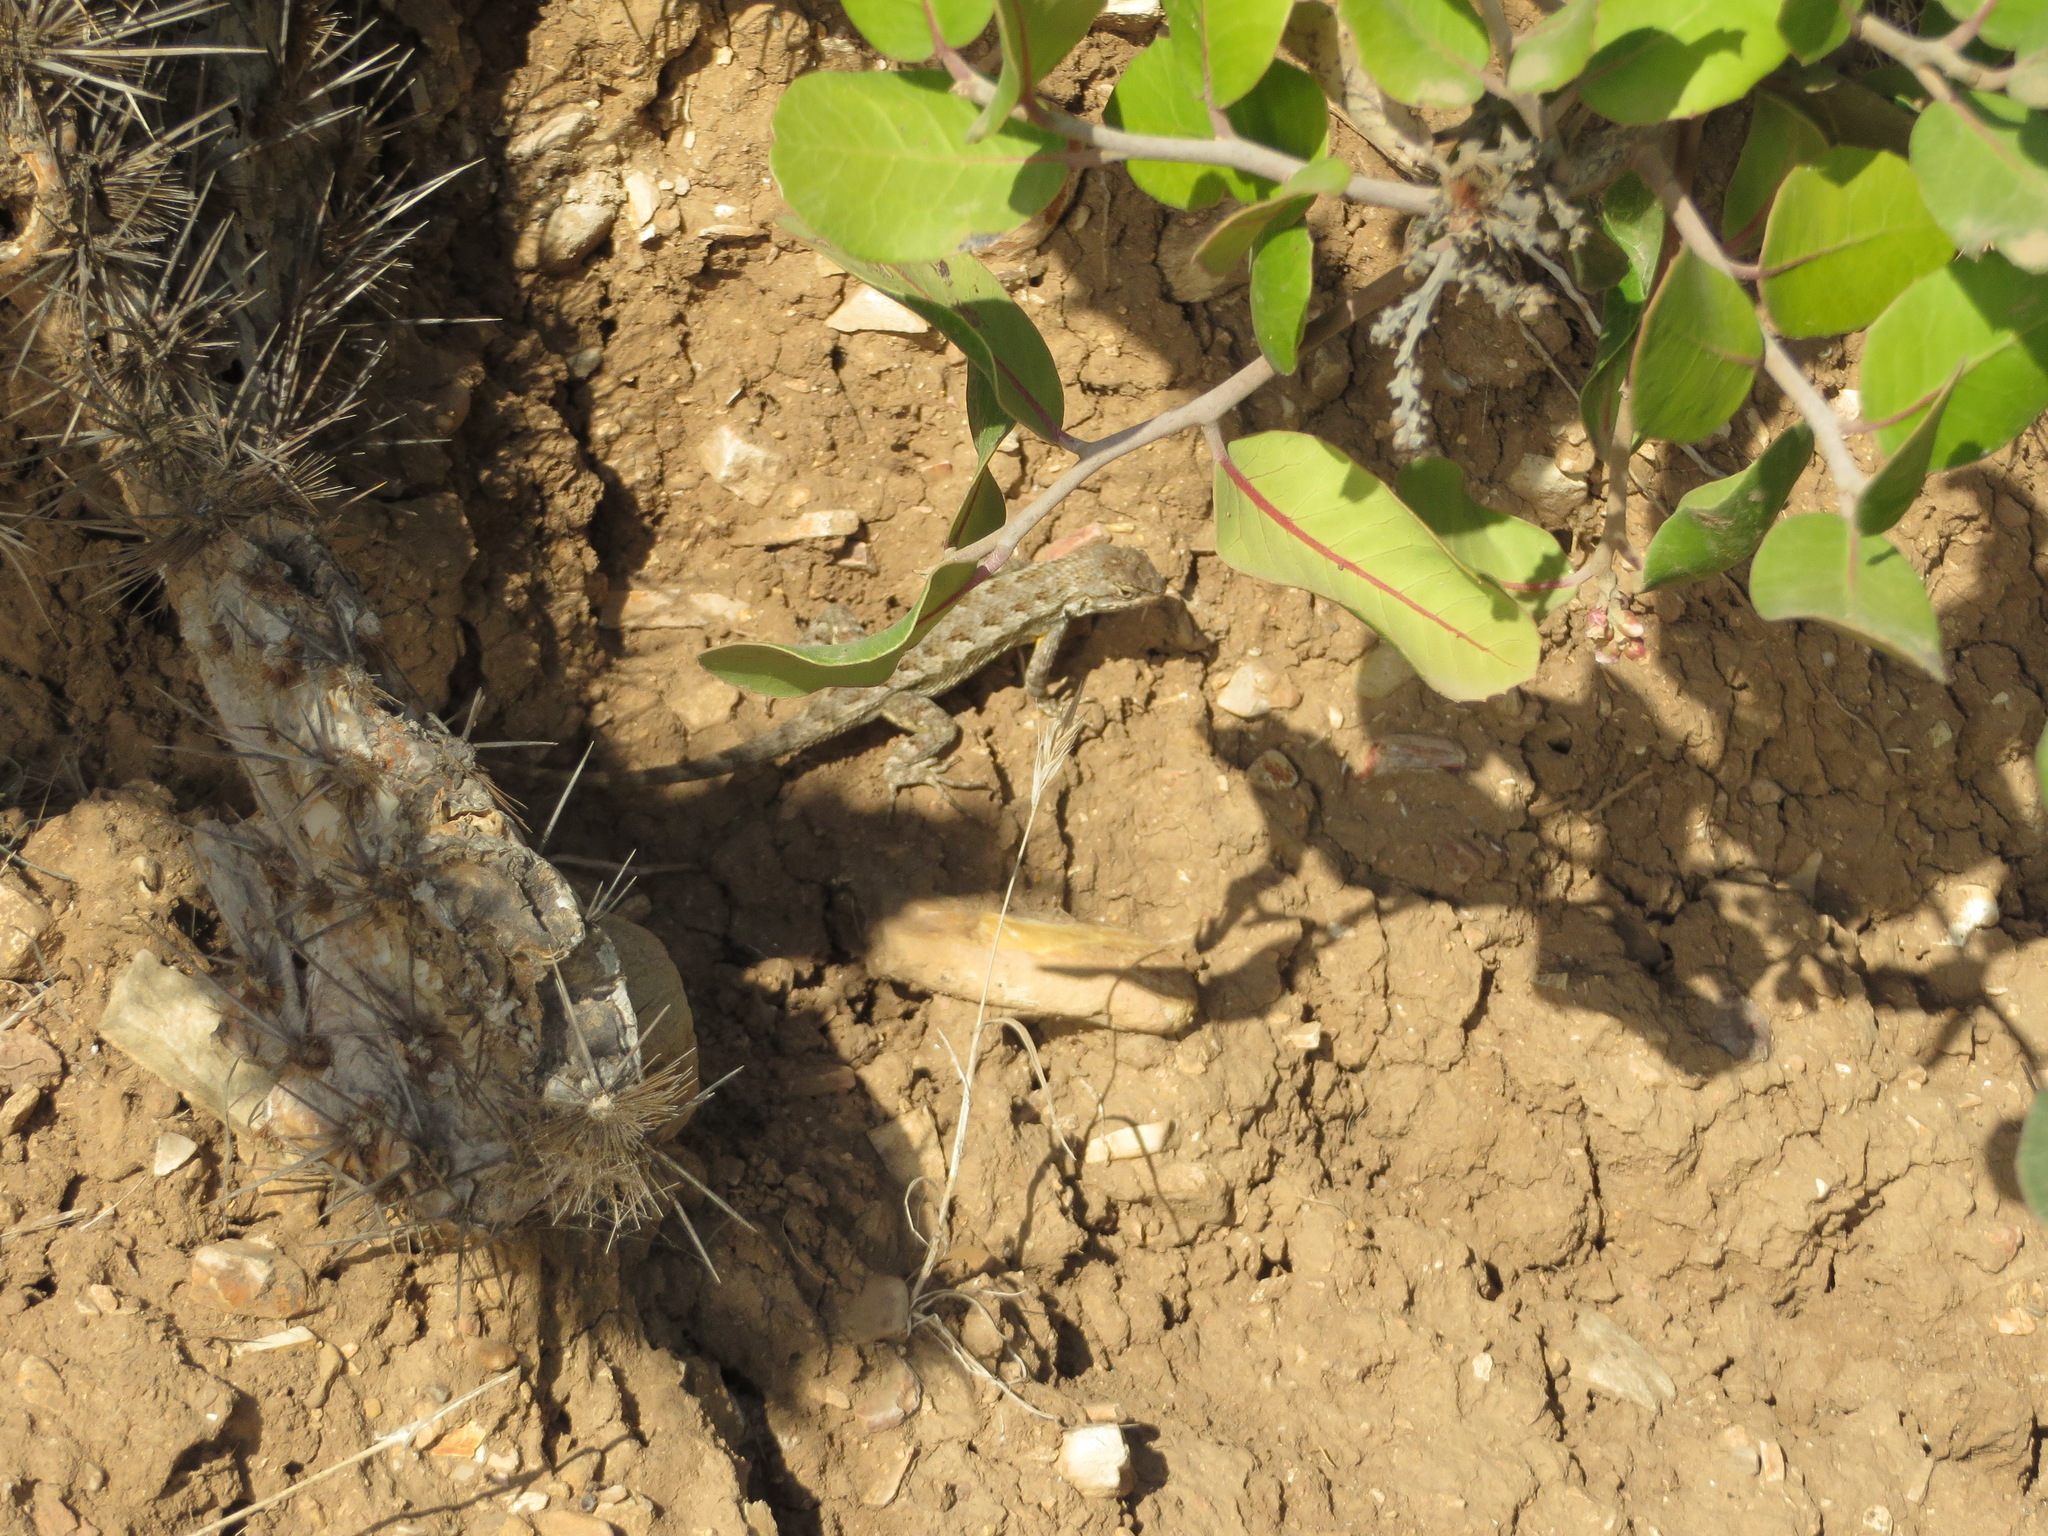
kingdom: Animalia
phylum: Chordata
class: Squamata
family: Phrynosomatidae
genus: Sceloporus
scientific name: Sceloporus occidentalis
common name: Western fence lizard
